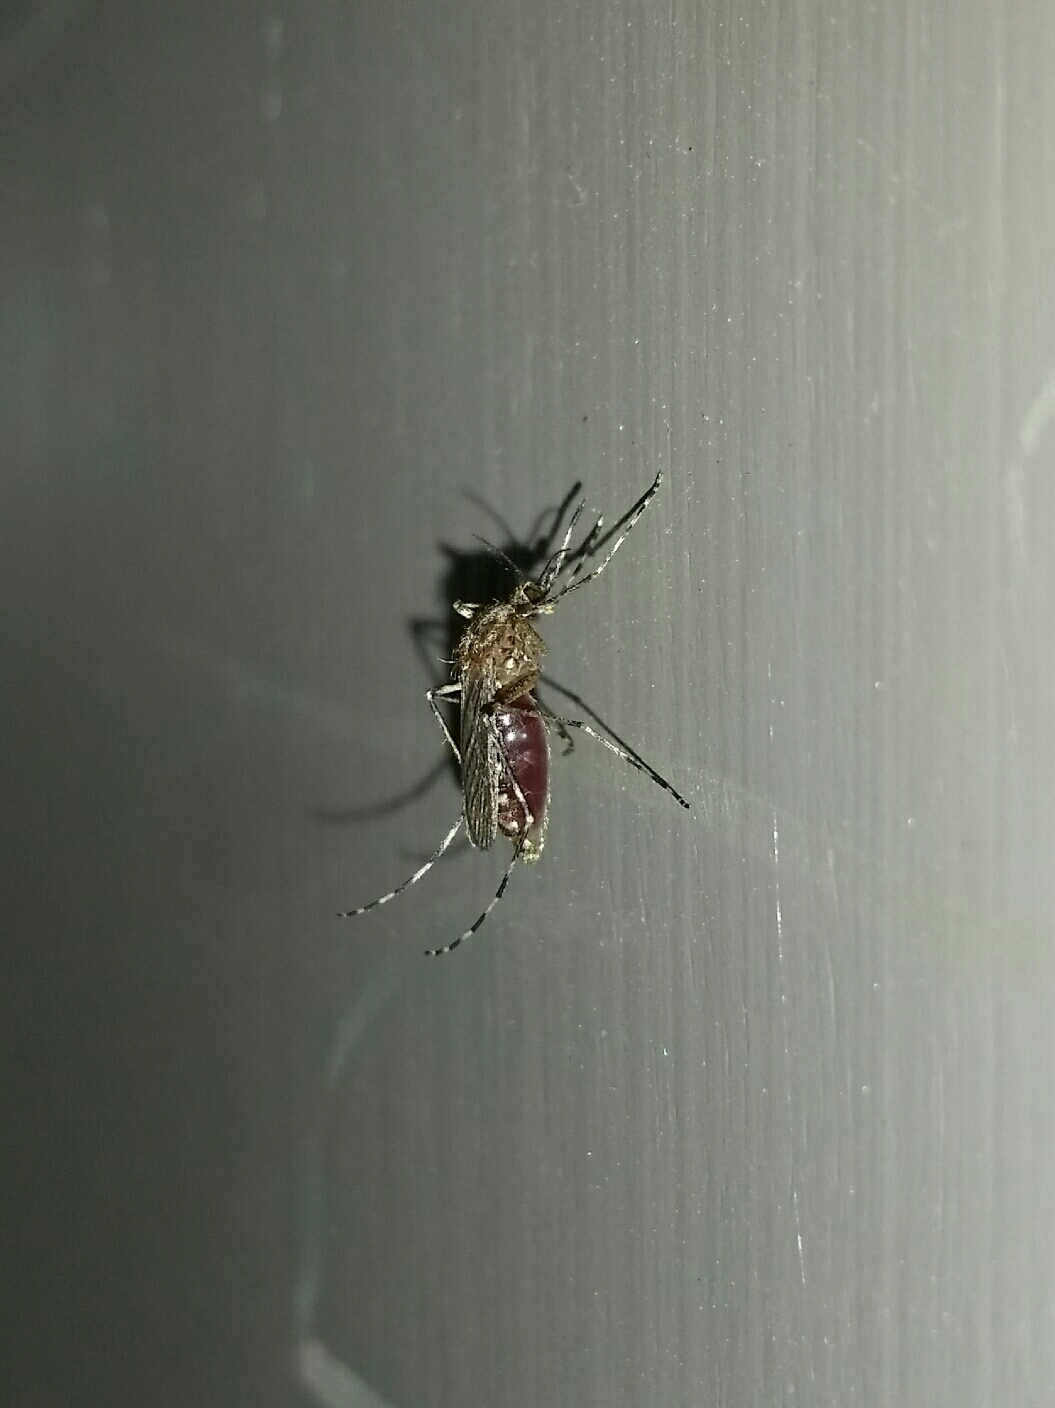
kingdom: Animalia
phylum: Arthropoda
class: Insecta
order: Diptera
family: Culicidae
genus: Coquillettidia
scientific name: Coquillettidia perturbans
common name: Cattail mosquito
